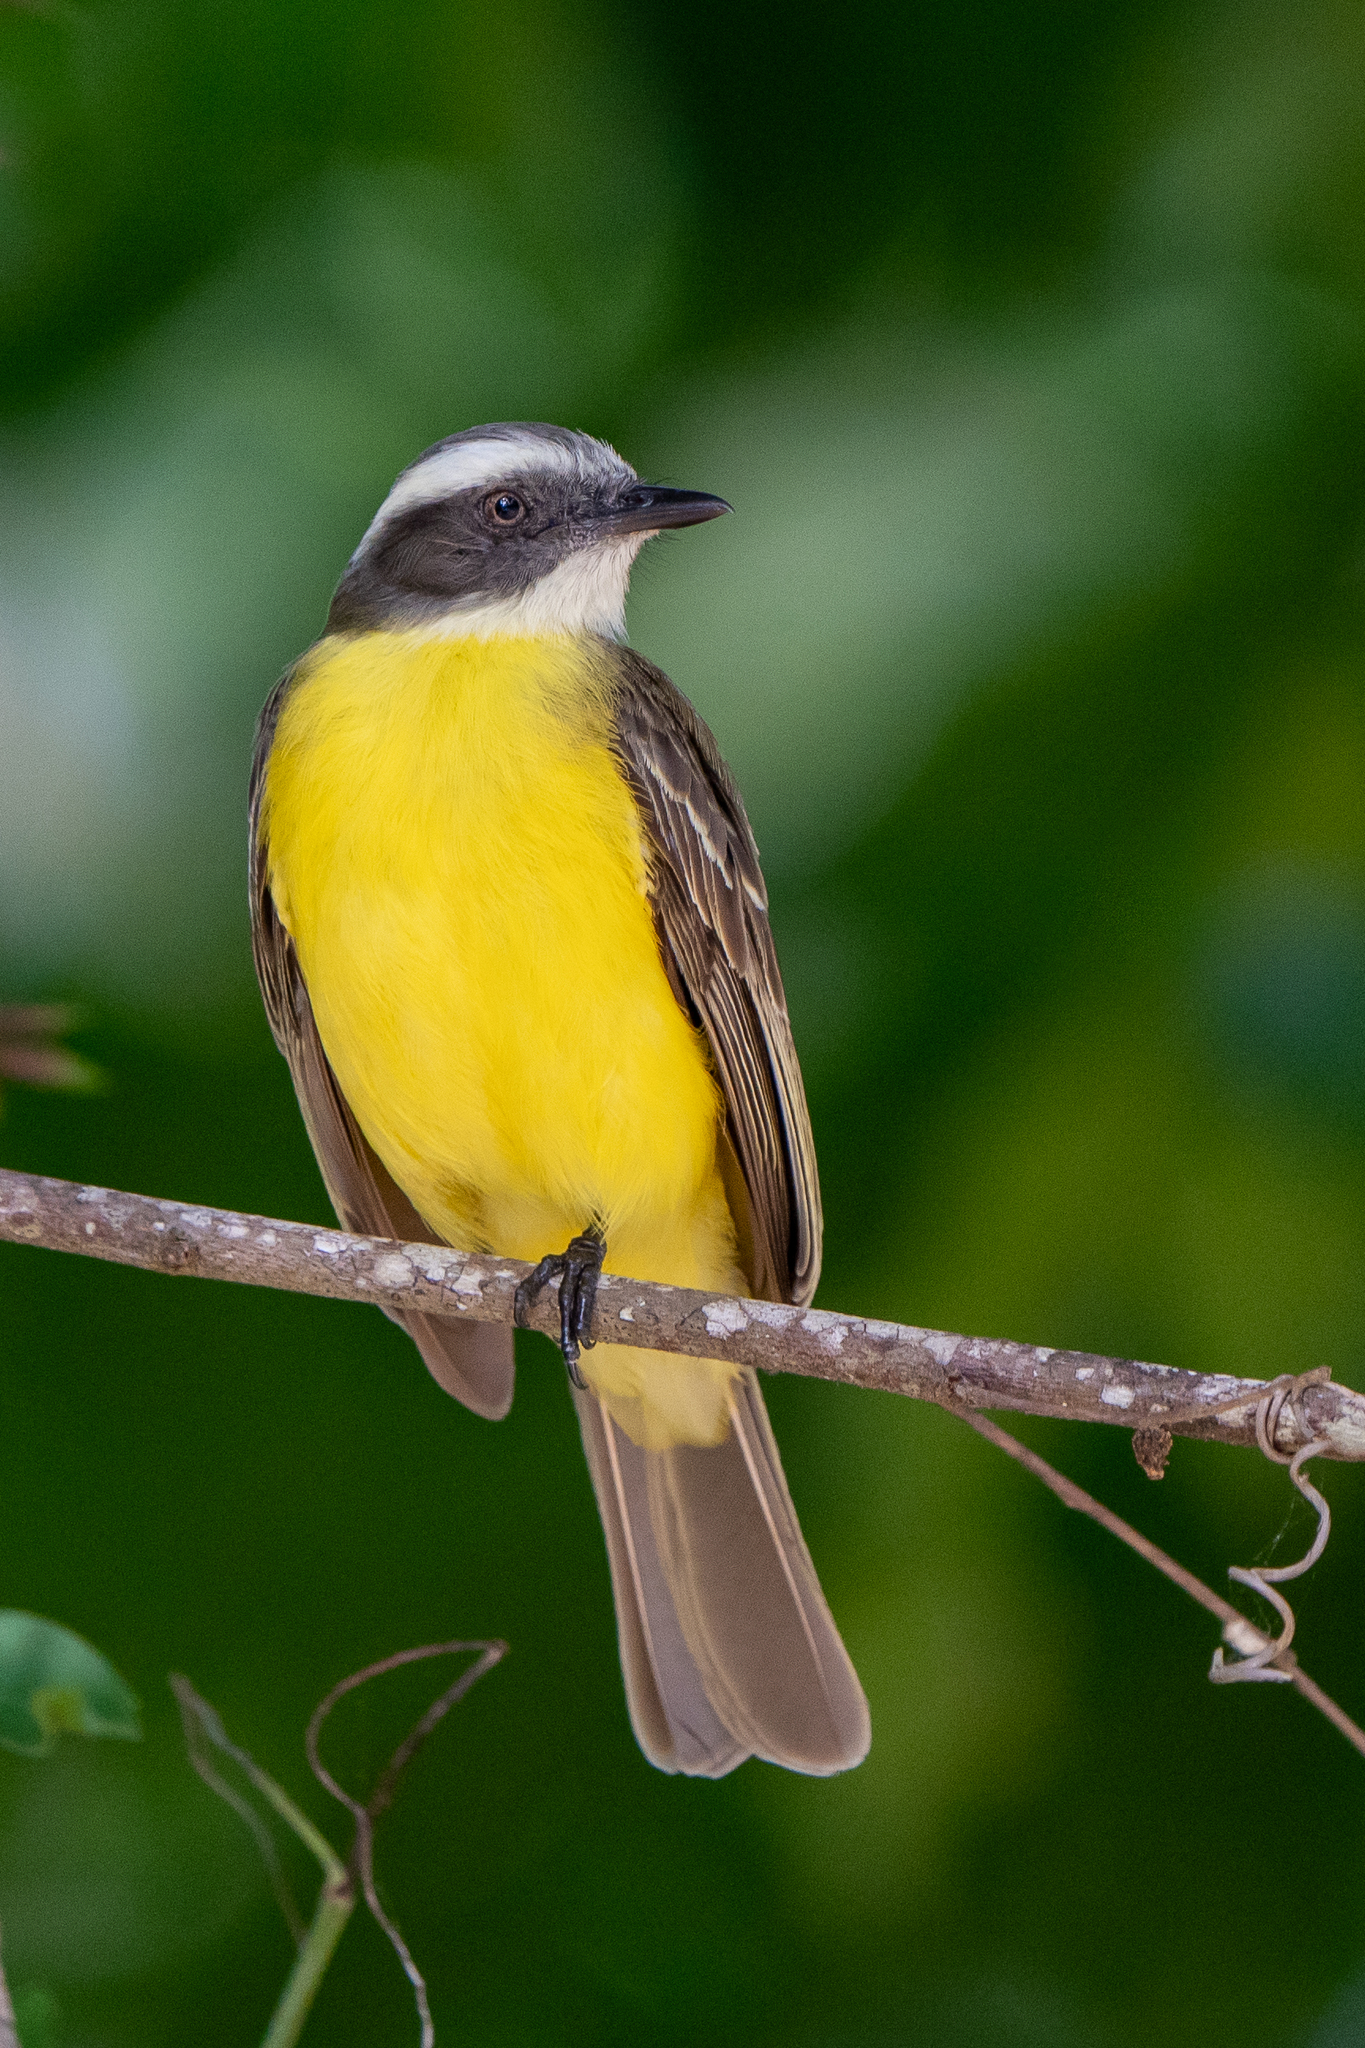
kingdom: Animalia
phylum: Chordata
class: Aves
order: Passeriformes
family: Tyrannidae
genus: Myiozetetes
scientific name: Myiozetetes similis
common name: Social flycatcher
